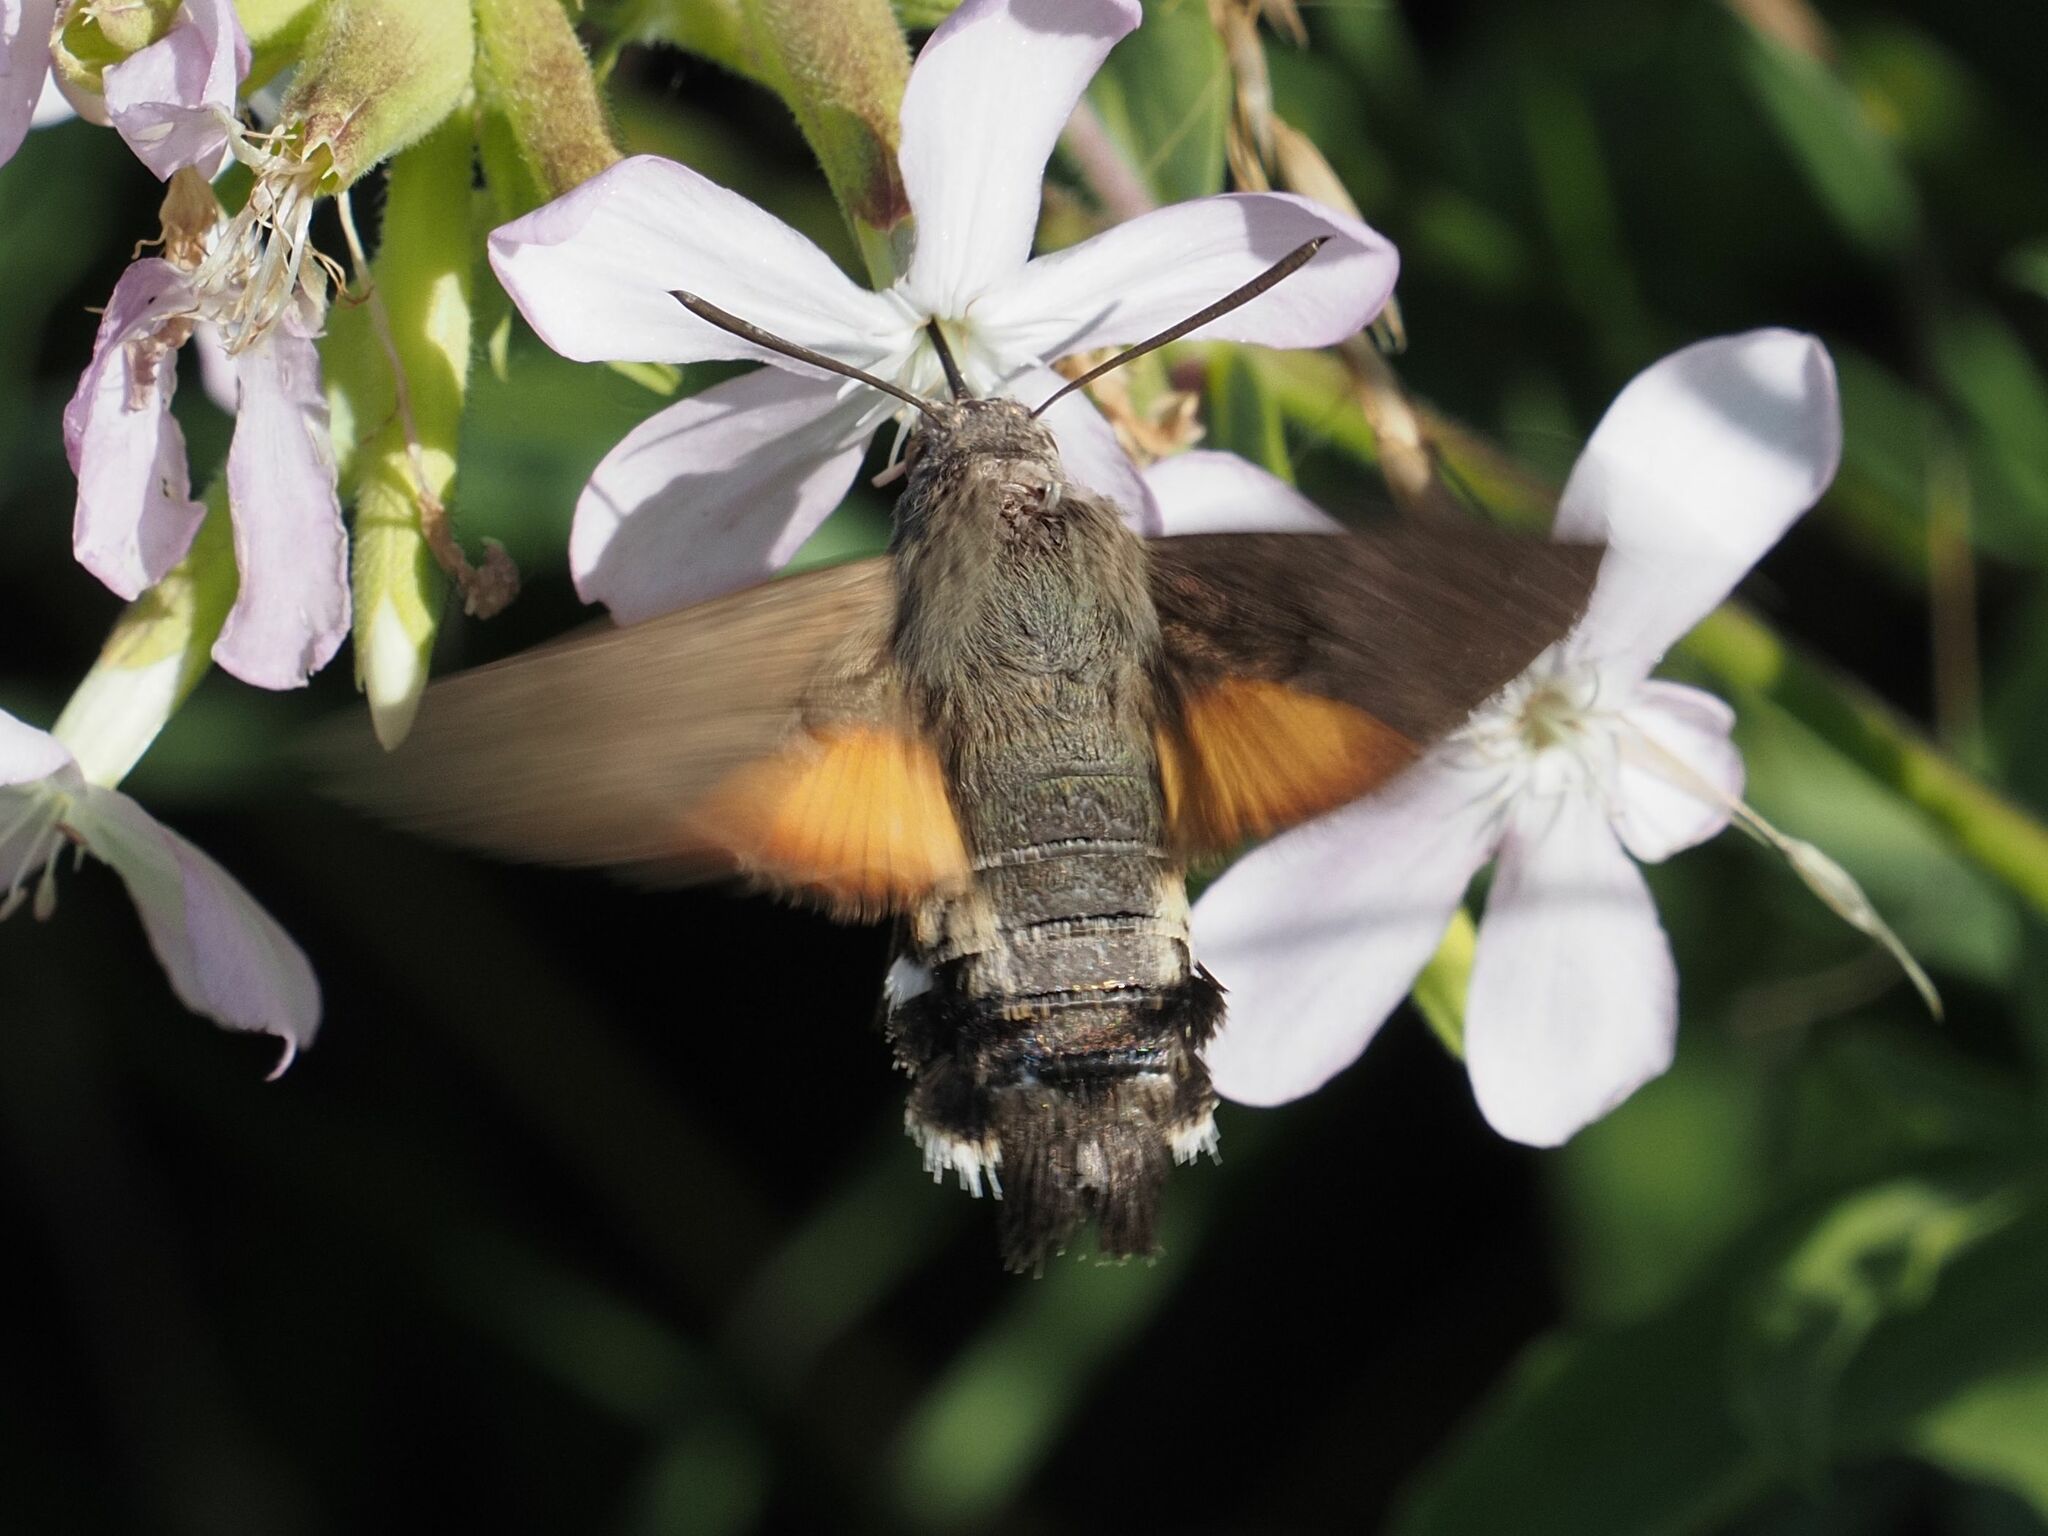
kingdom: Animalia
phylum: Arthropoda
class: Insecta
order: Lepidoptera
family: Sphingidae
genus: Macroglossum
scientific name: Macroglossum stellatarum
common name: Humming-bird hawk-moth
